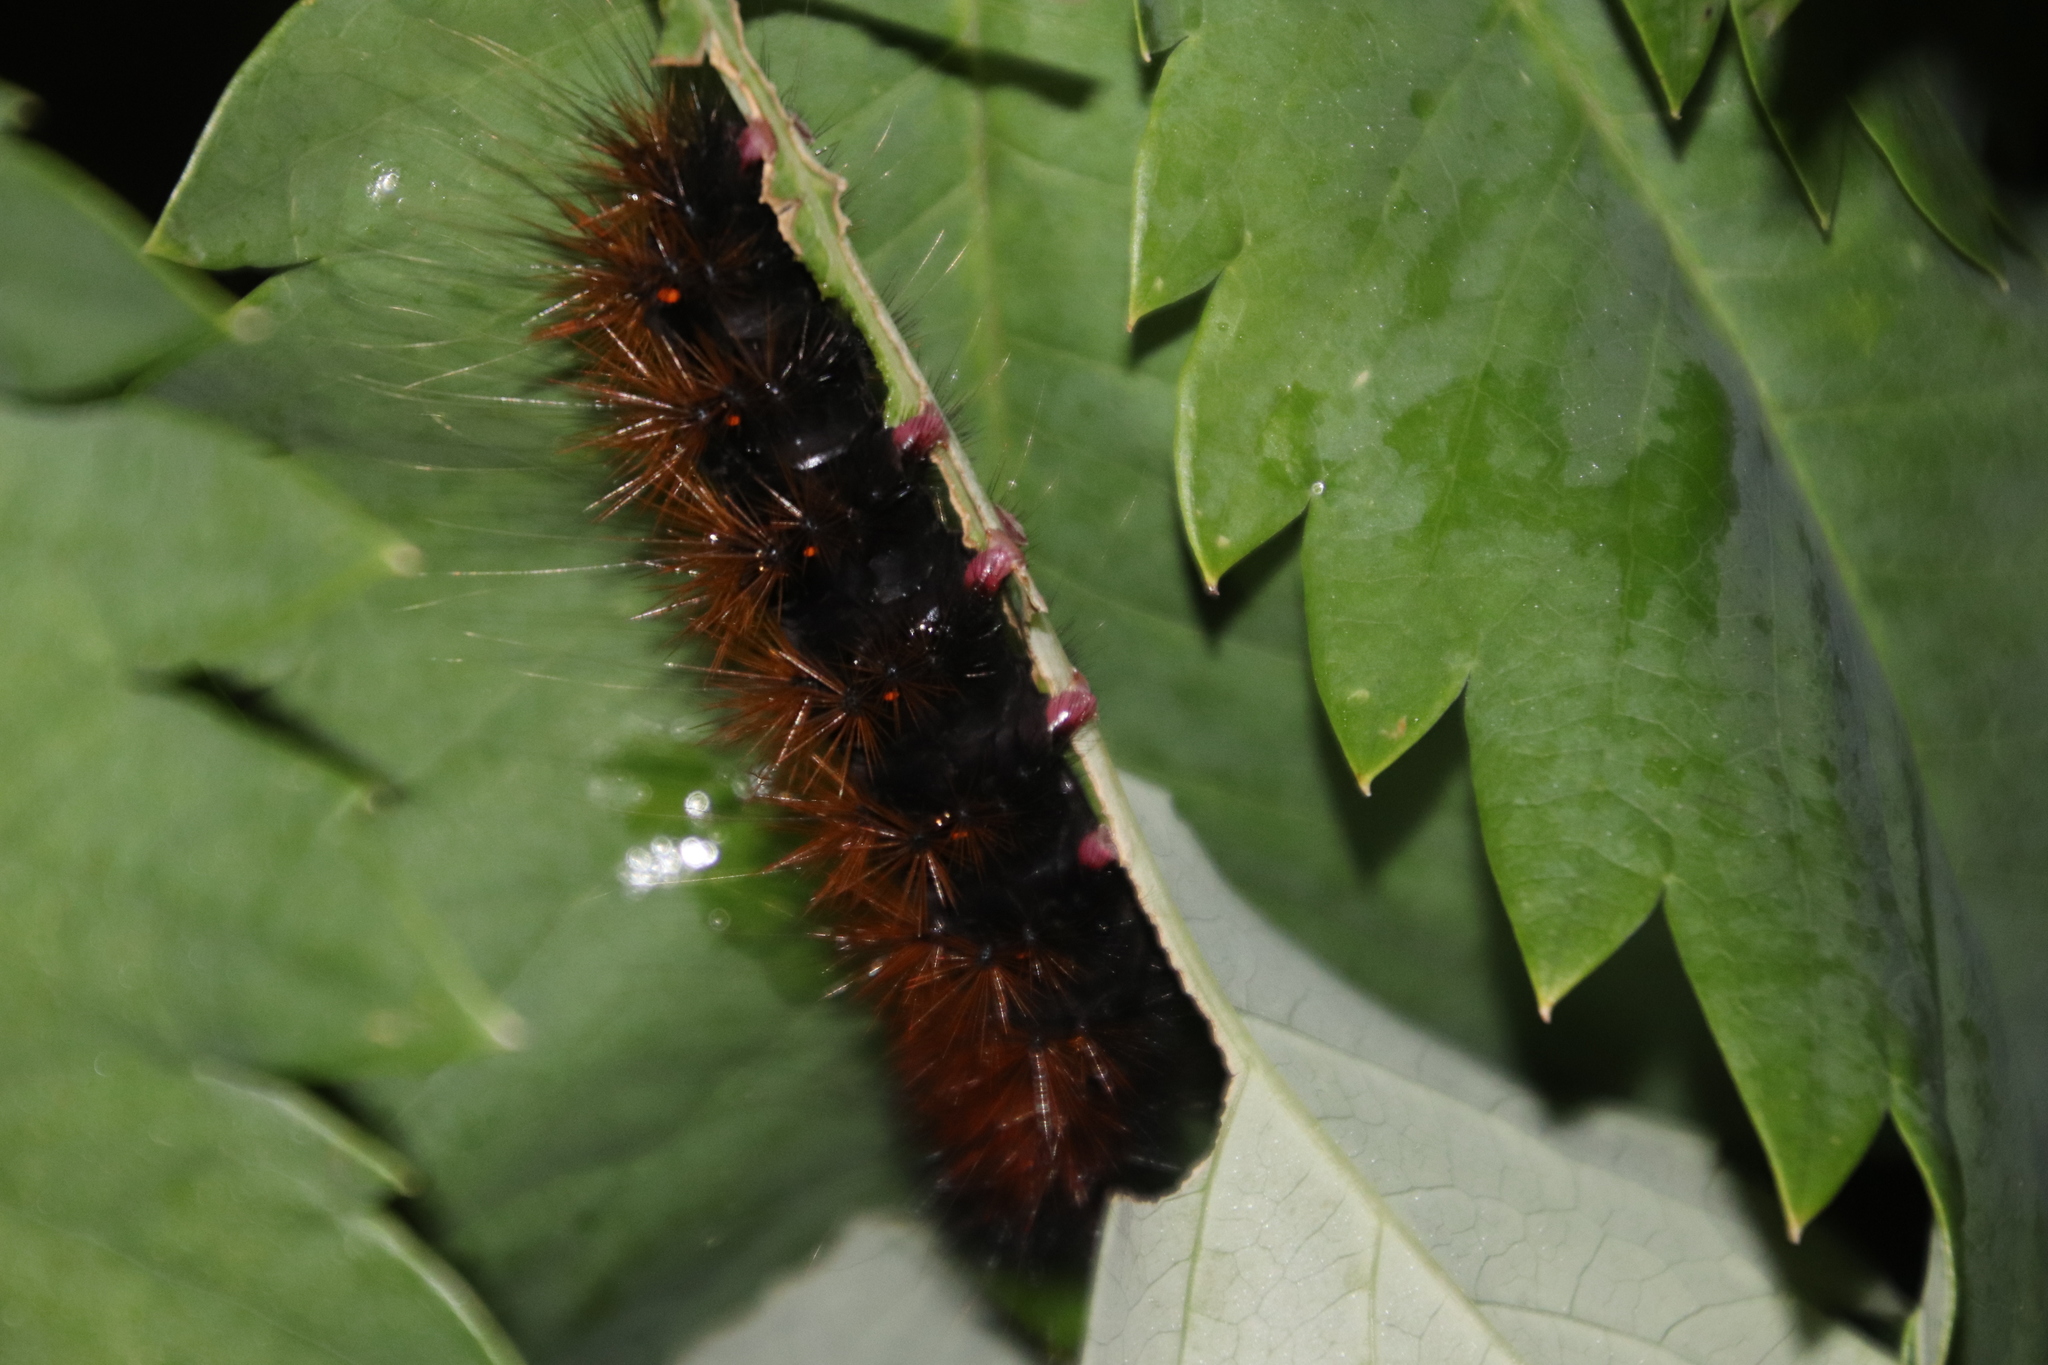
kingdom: Plantae
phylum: Tracheophyta
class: Magnoliopsida
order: Geraniales
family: Melianthaceae
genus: Melianthus
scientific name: Melianthus major
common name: Honey-flower
